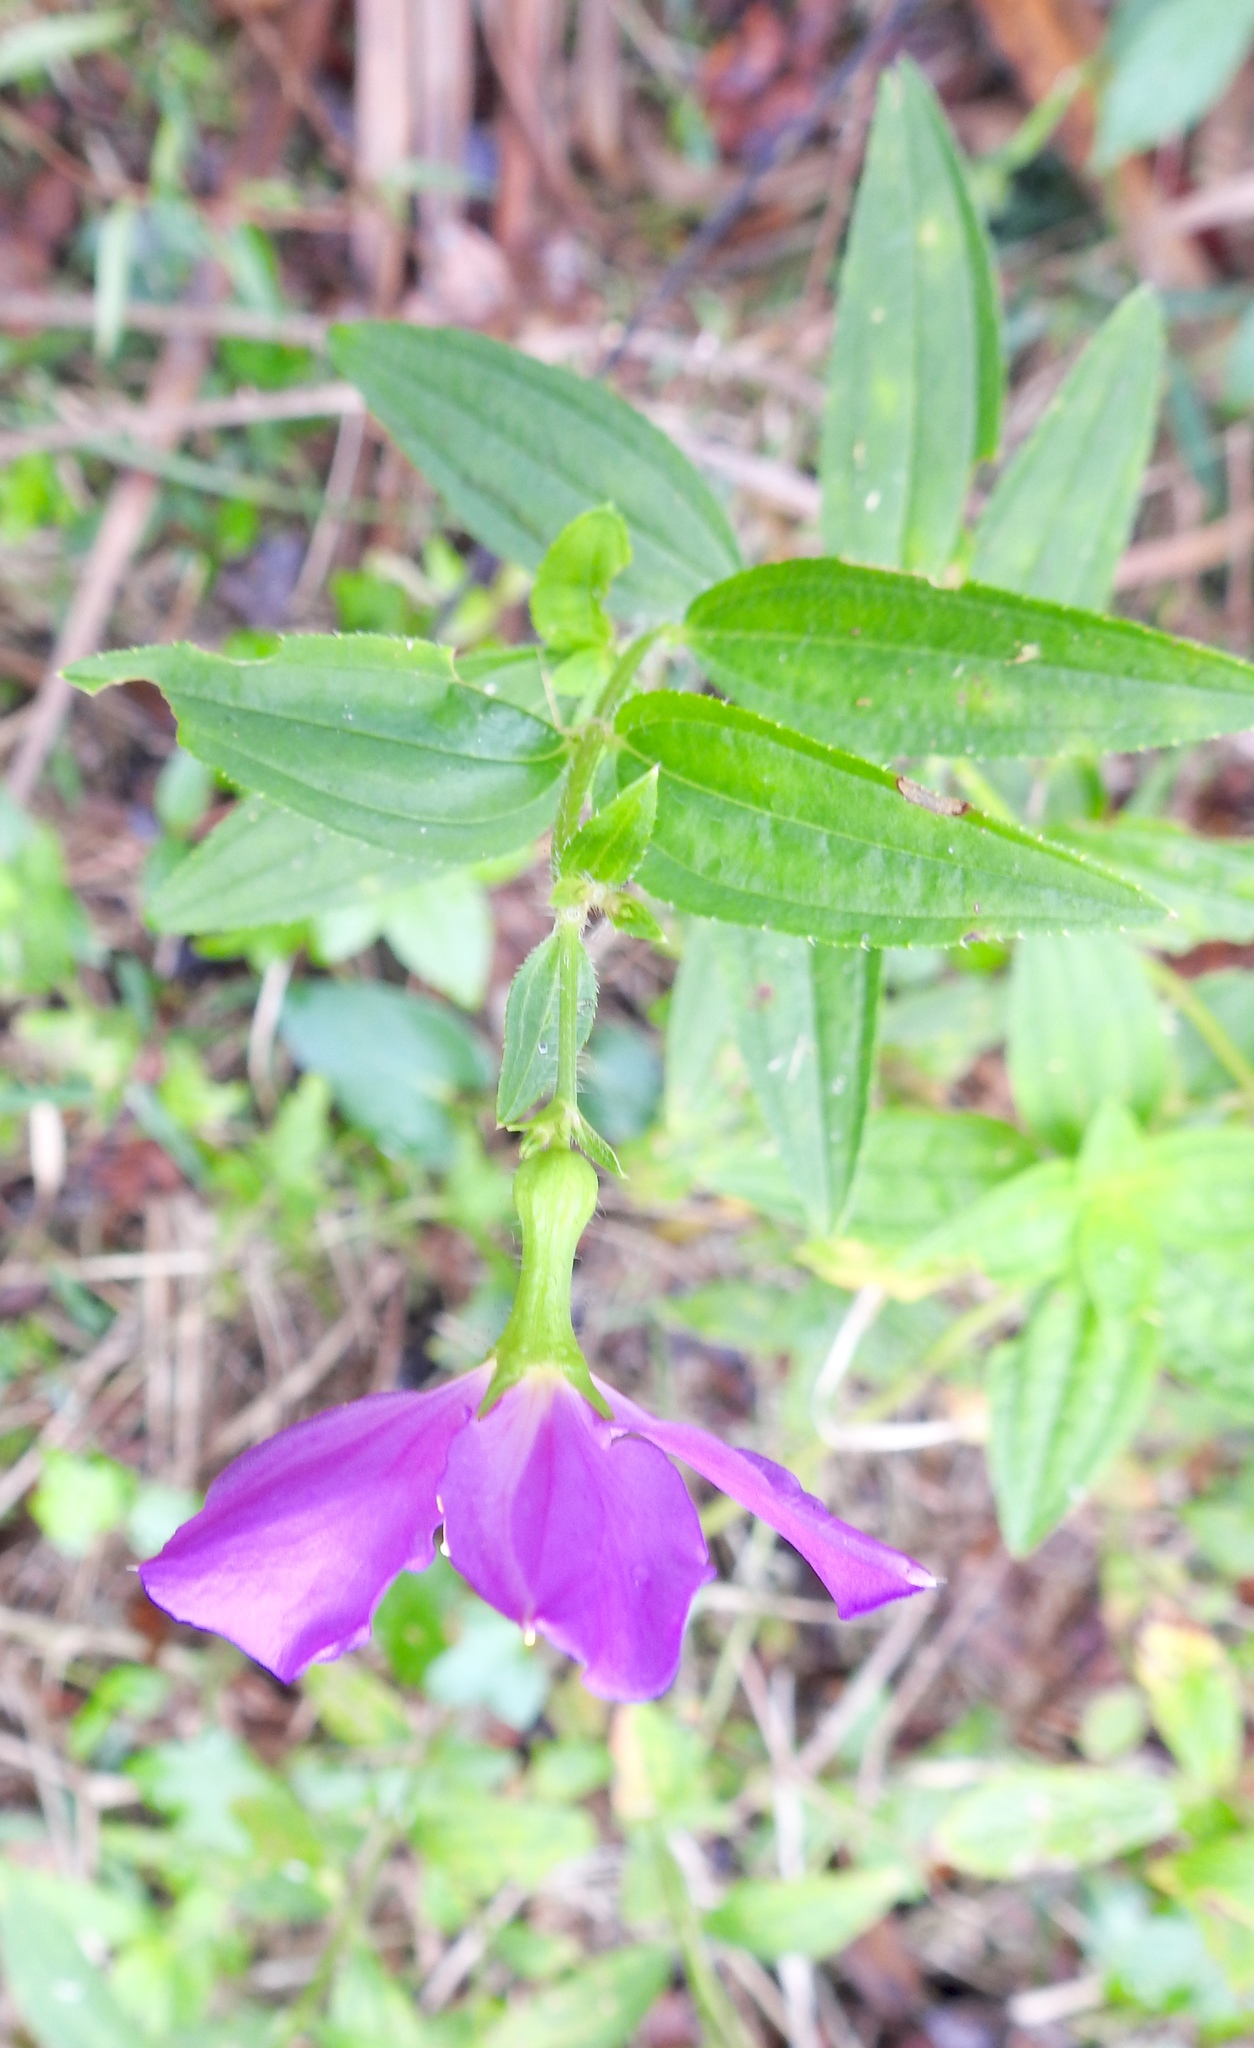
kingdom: Plantae
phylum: Tracheophyta
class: Magnoliopsida
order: Myrtales
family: Melastomataceae
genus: Rhexia
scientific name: Rhexia virginica
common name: Common meadow beauty
